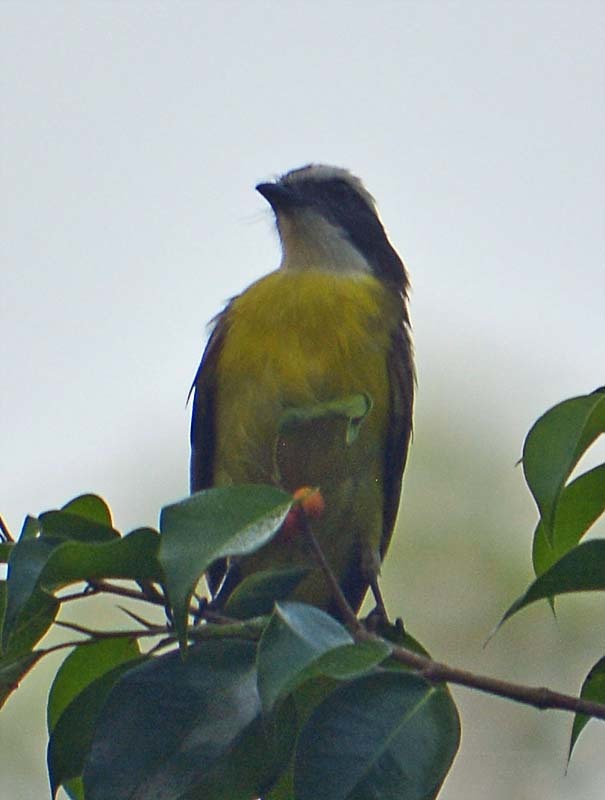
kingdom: Animalia
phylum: Chordata
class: Aves
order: Passeriformes
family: Tyrannidae
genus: Myiozetetes
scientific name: Myiozetetes similis
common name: Social flycatcher
